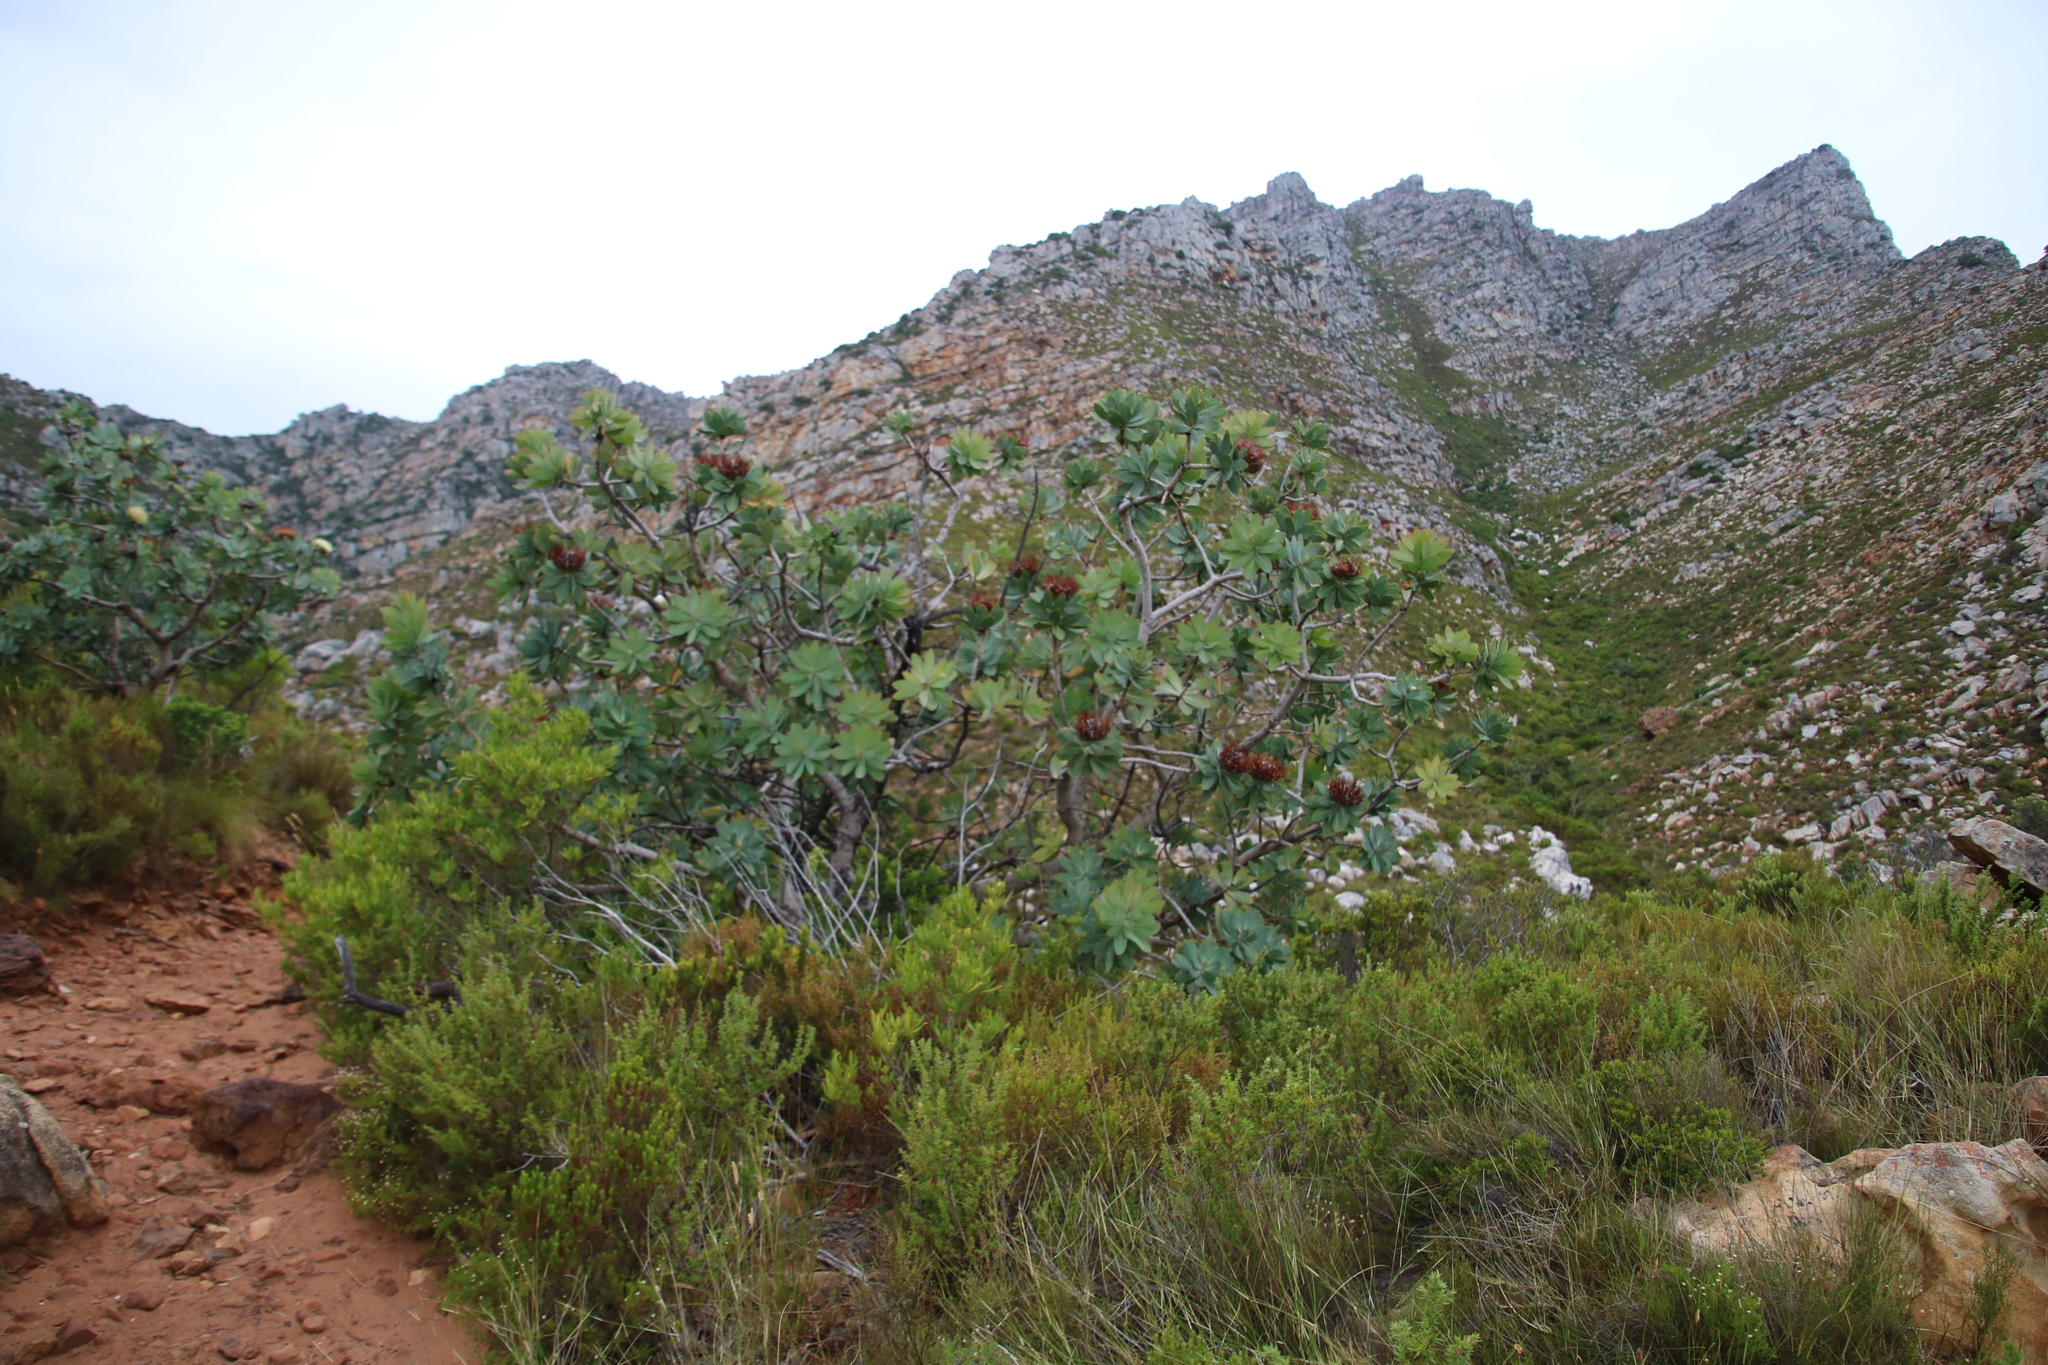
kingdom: Plantae
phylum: Tracheophyta
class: Magnoliopsida
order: Proteales
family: Proteaceae
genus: Protea
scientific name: Protea nitida
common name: Tree protea
